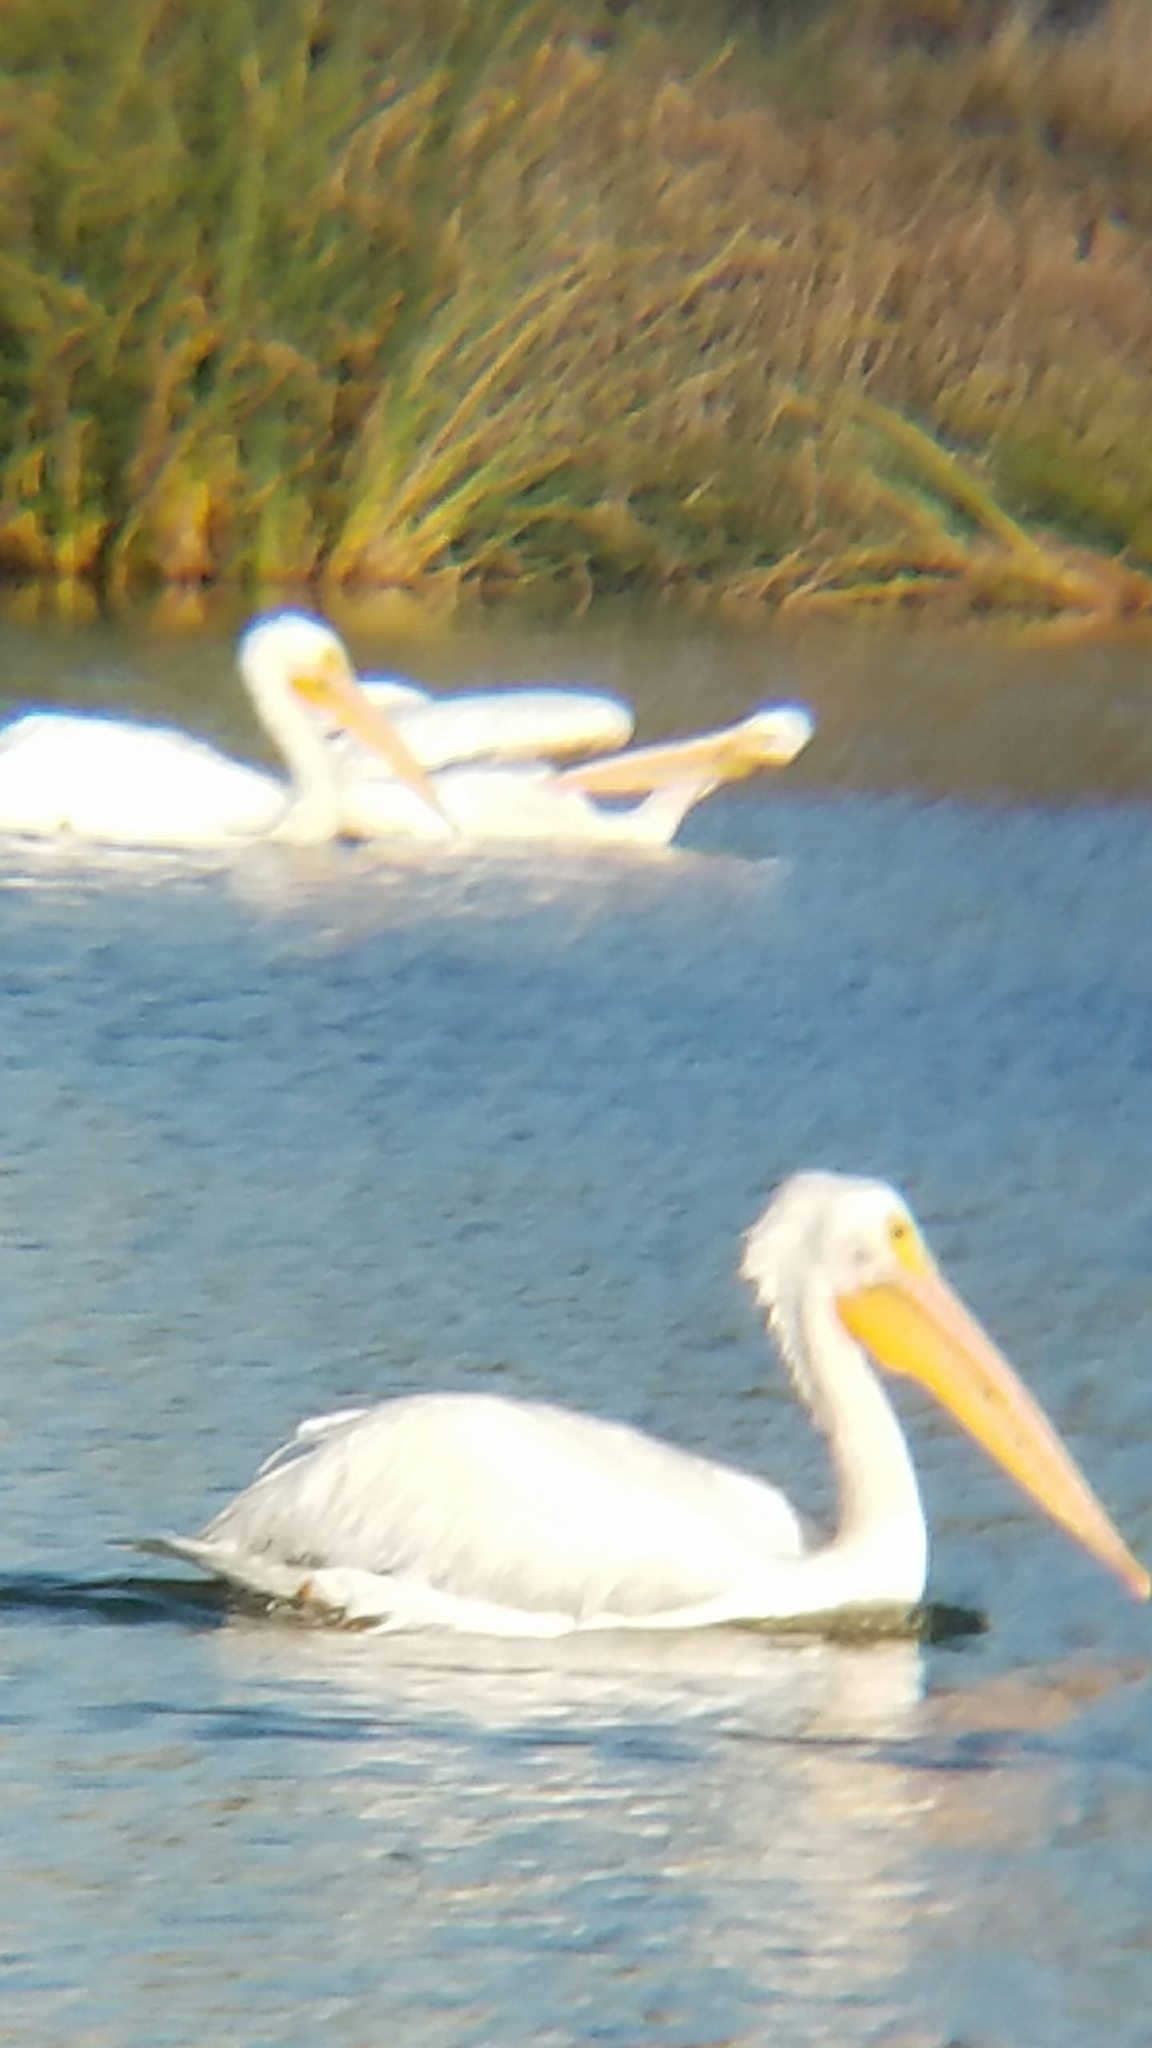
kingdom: Animalia
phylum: Chordata
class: Aves
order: Pelecaniformes
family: Pelecanidae
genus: Pelecanus
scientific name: Pelecanus erythrorhynchos
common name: American white pelican
